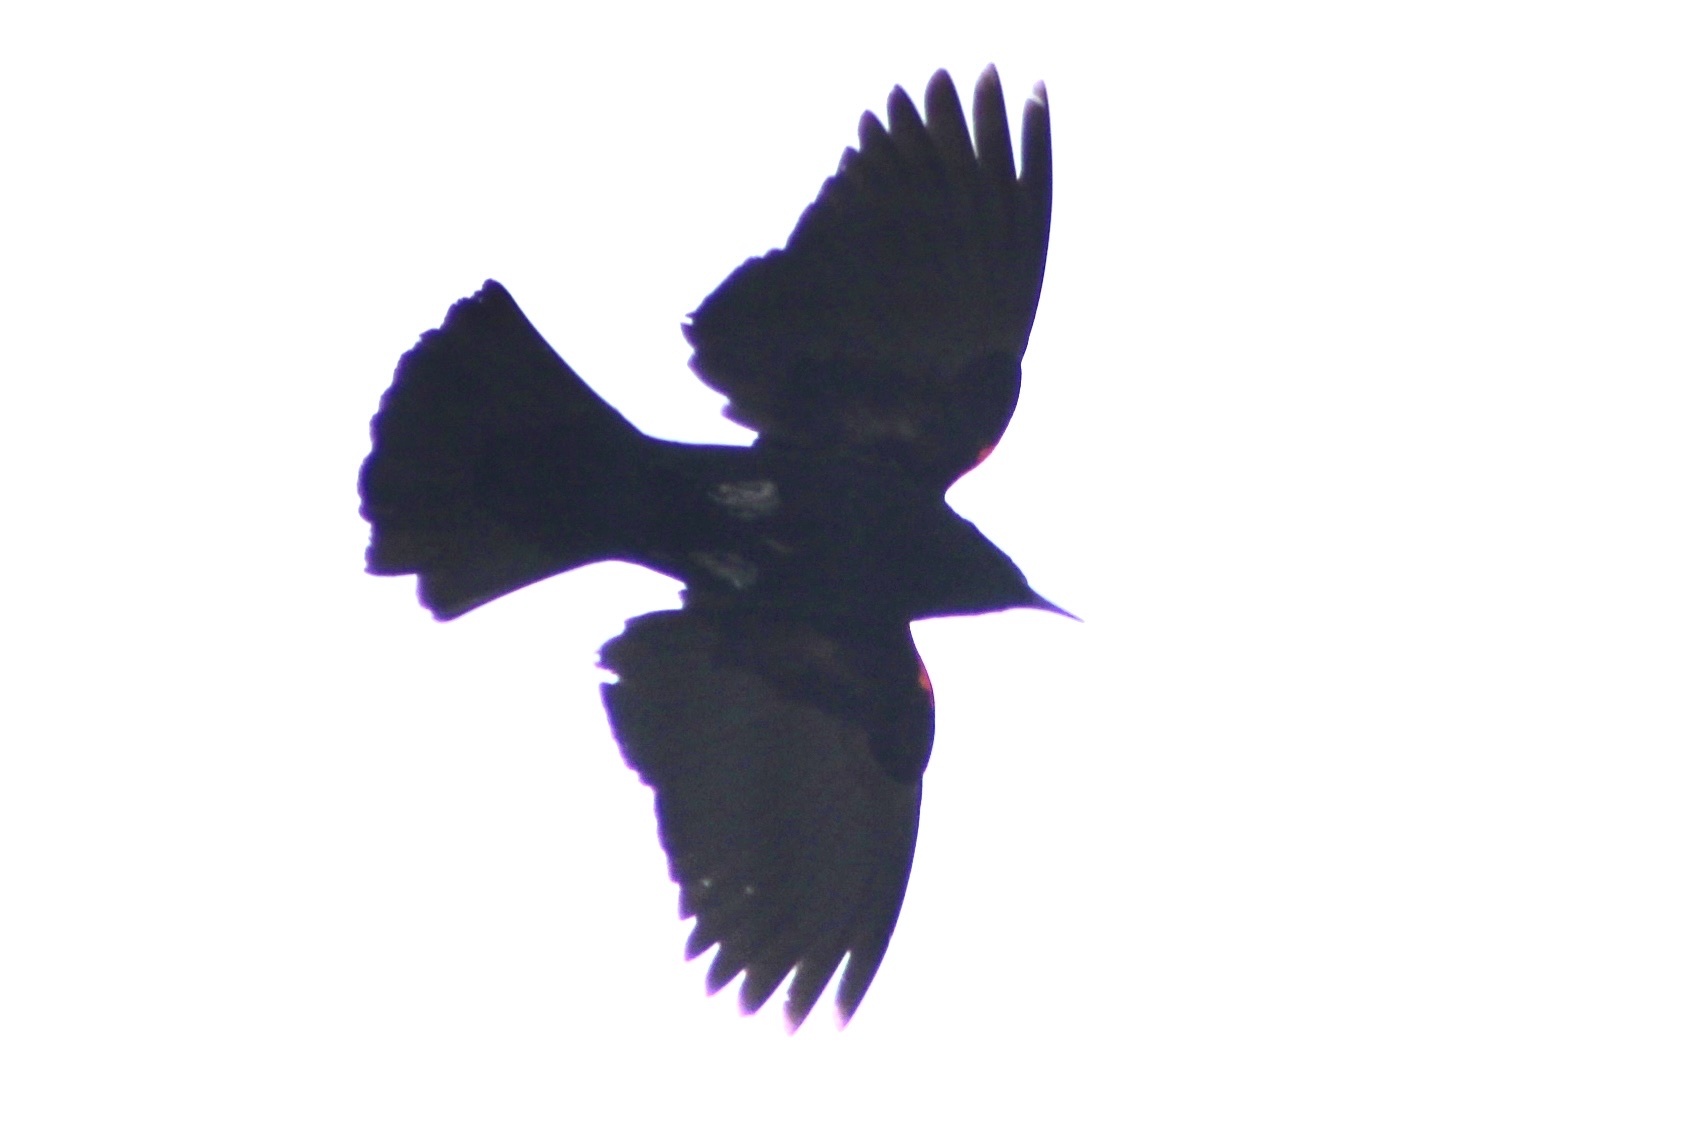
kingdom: Animalia
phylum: Chordata
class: Aves
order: Passeriformes
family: Icteridae
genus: Agelaius
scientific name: Agelaius phoeniceus
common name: Red-winged blackbird
